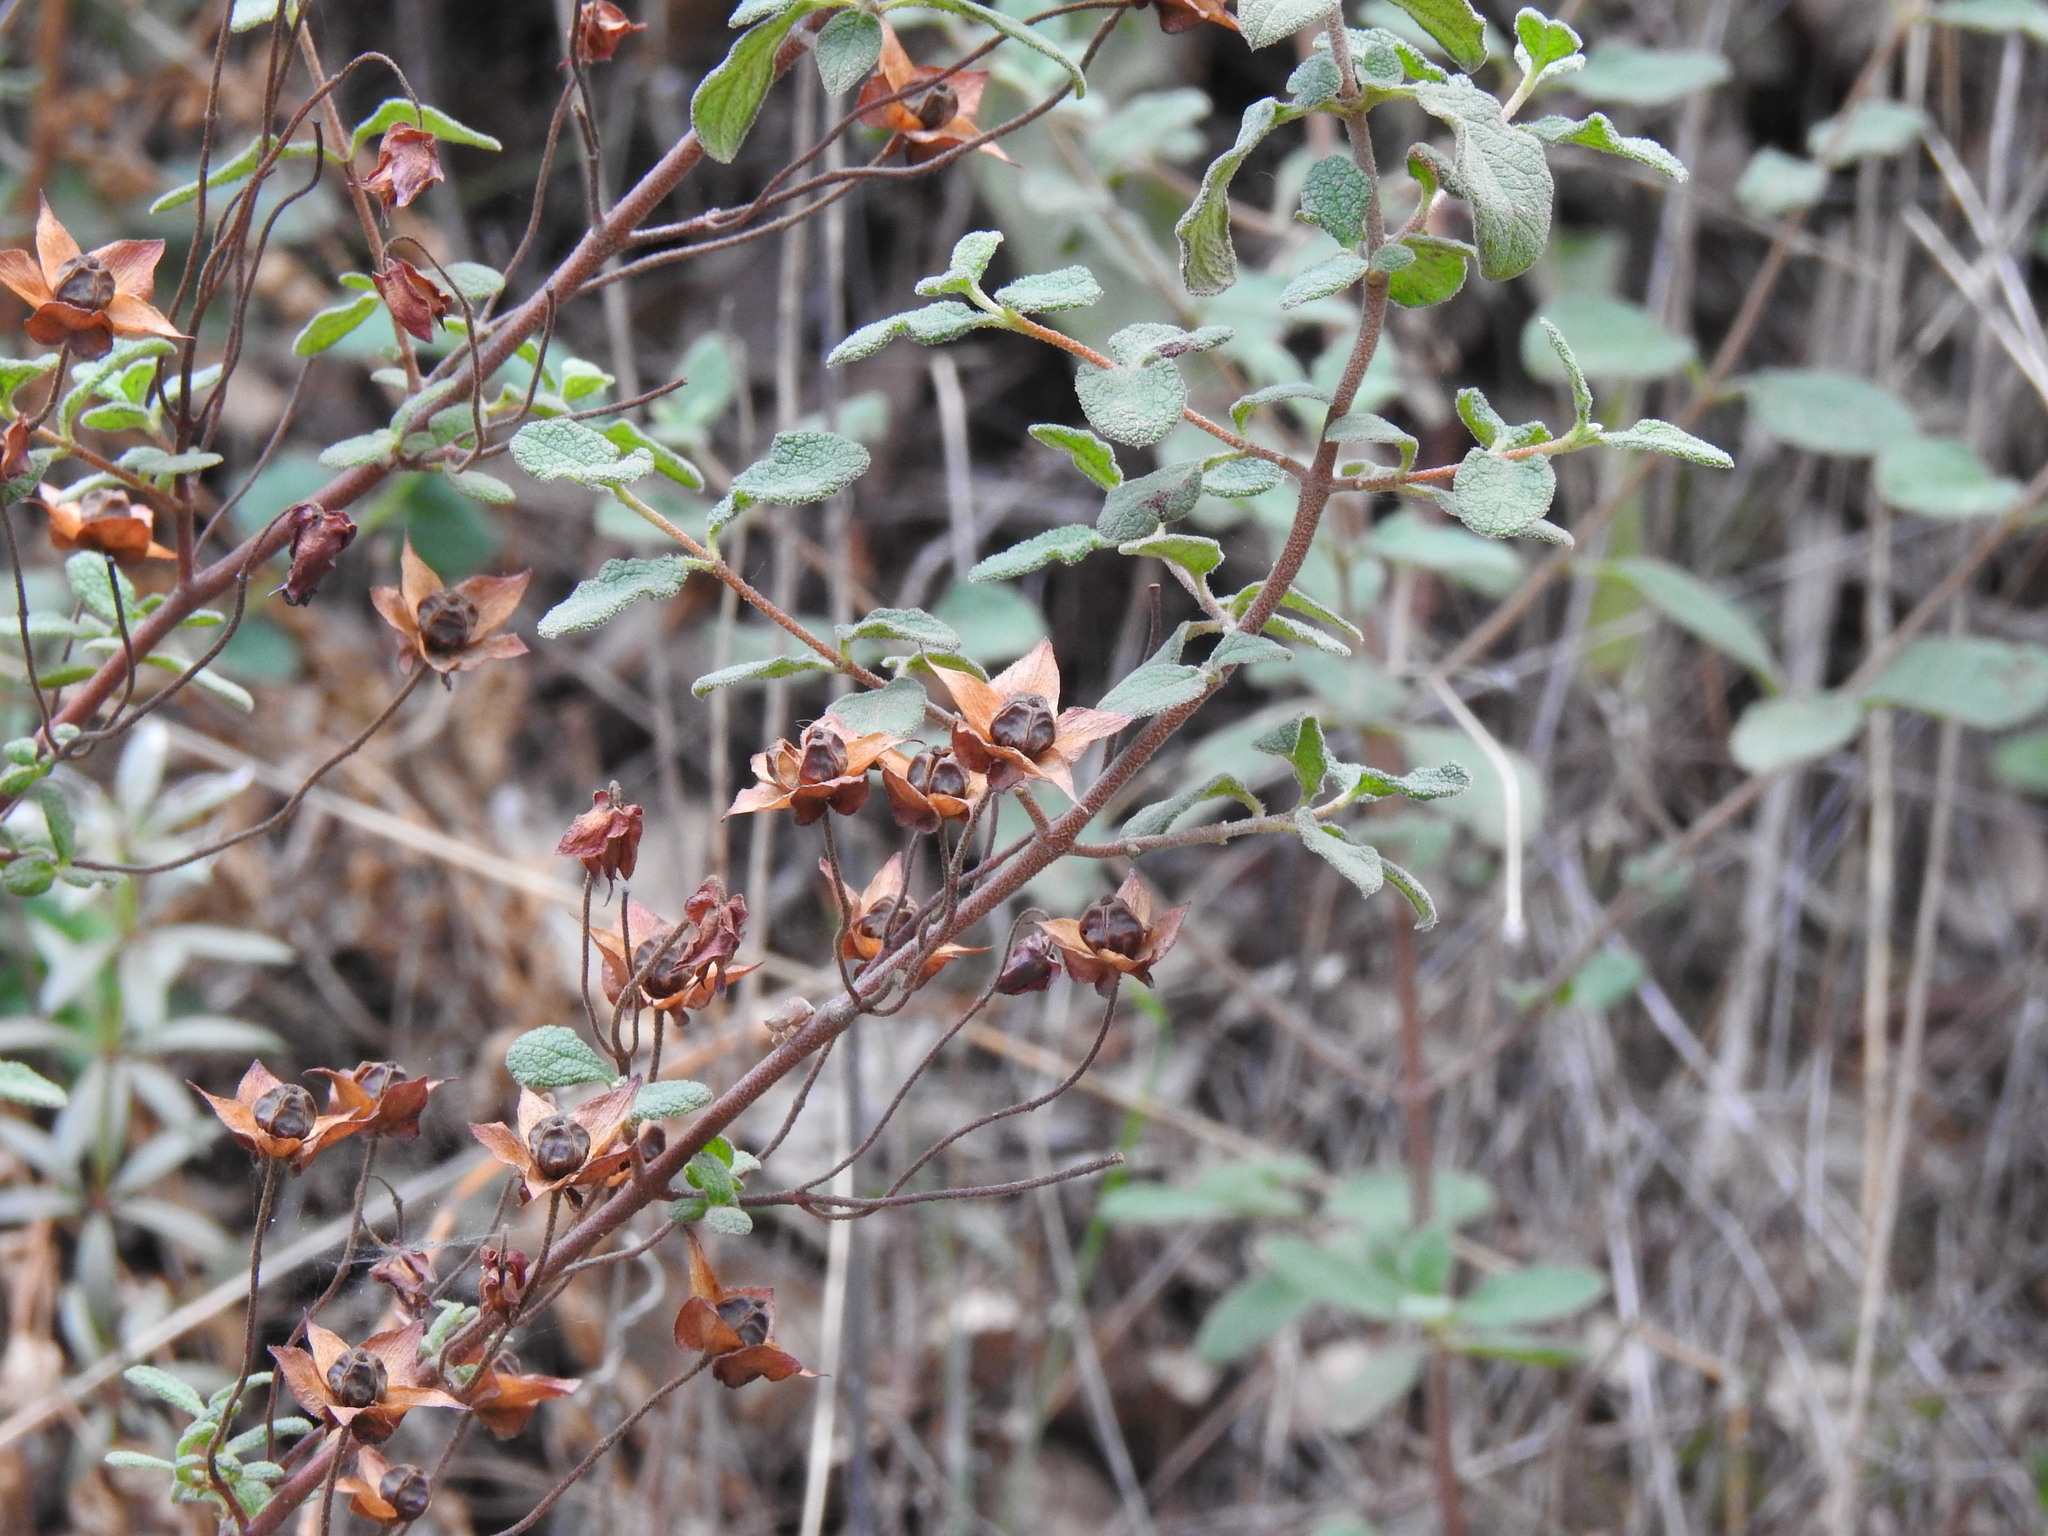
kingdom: Plantae
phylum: Tracheophyta
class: Magnoliopsida
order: Malvales
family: Cistaceae
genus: Cistus
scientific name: Cistus salviifolius
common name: Salvia cistus
